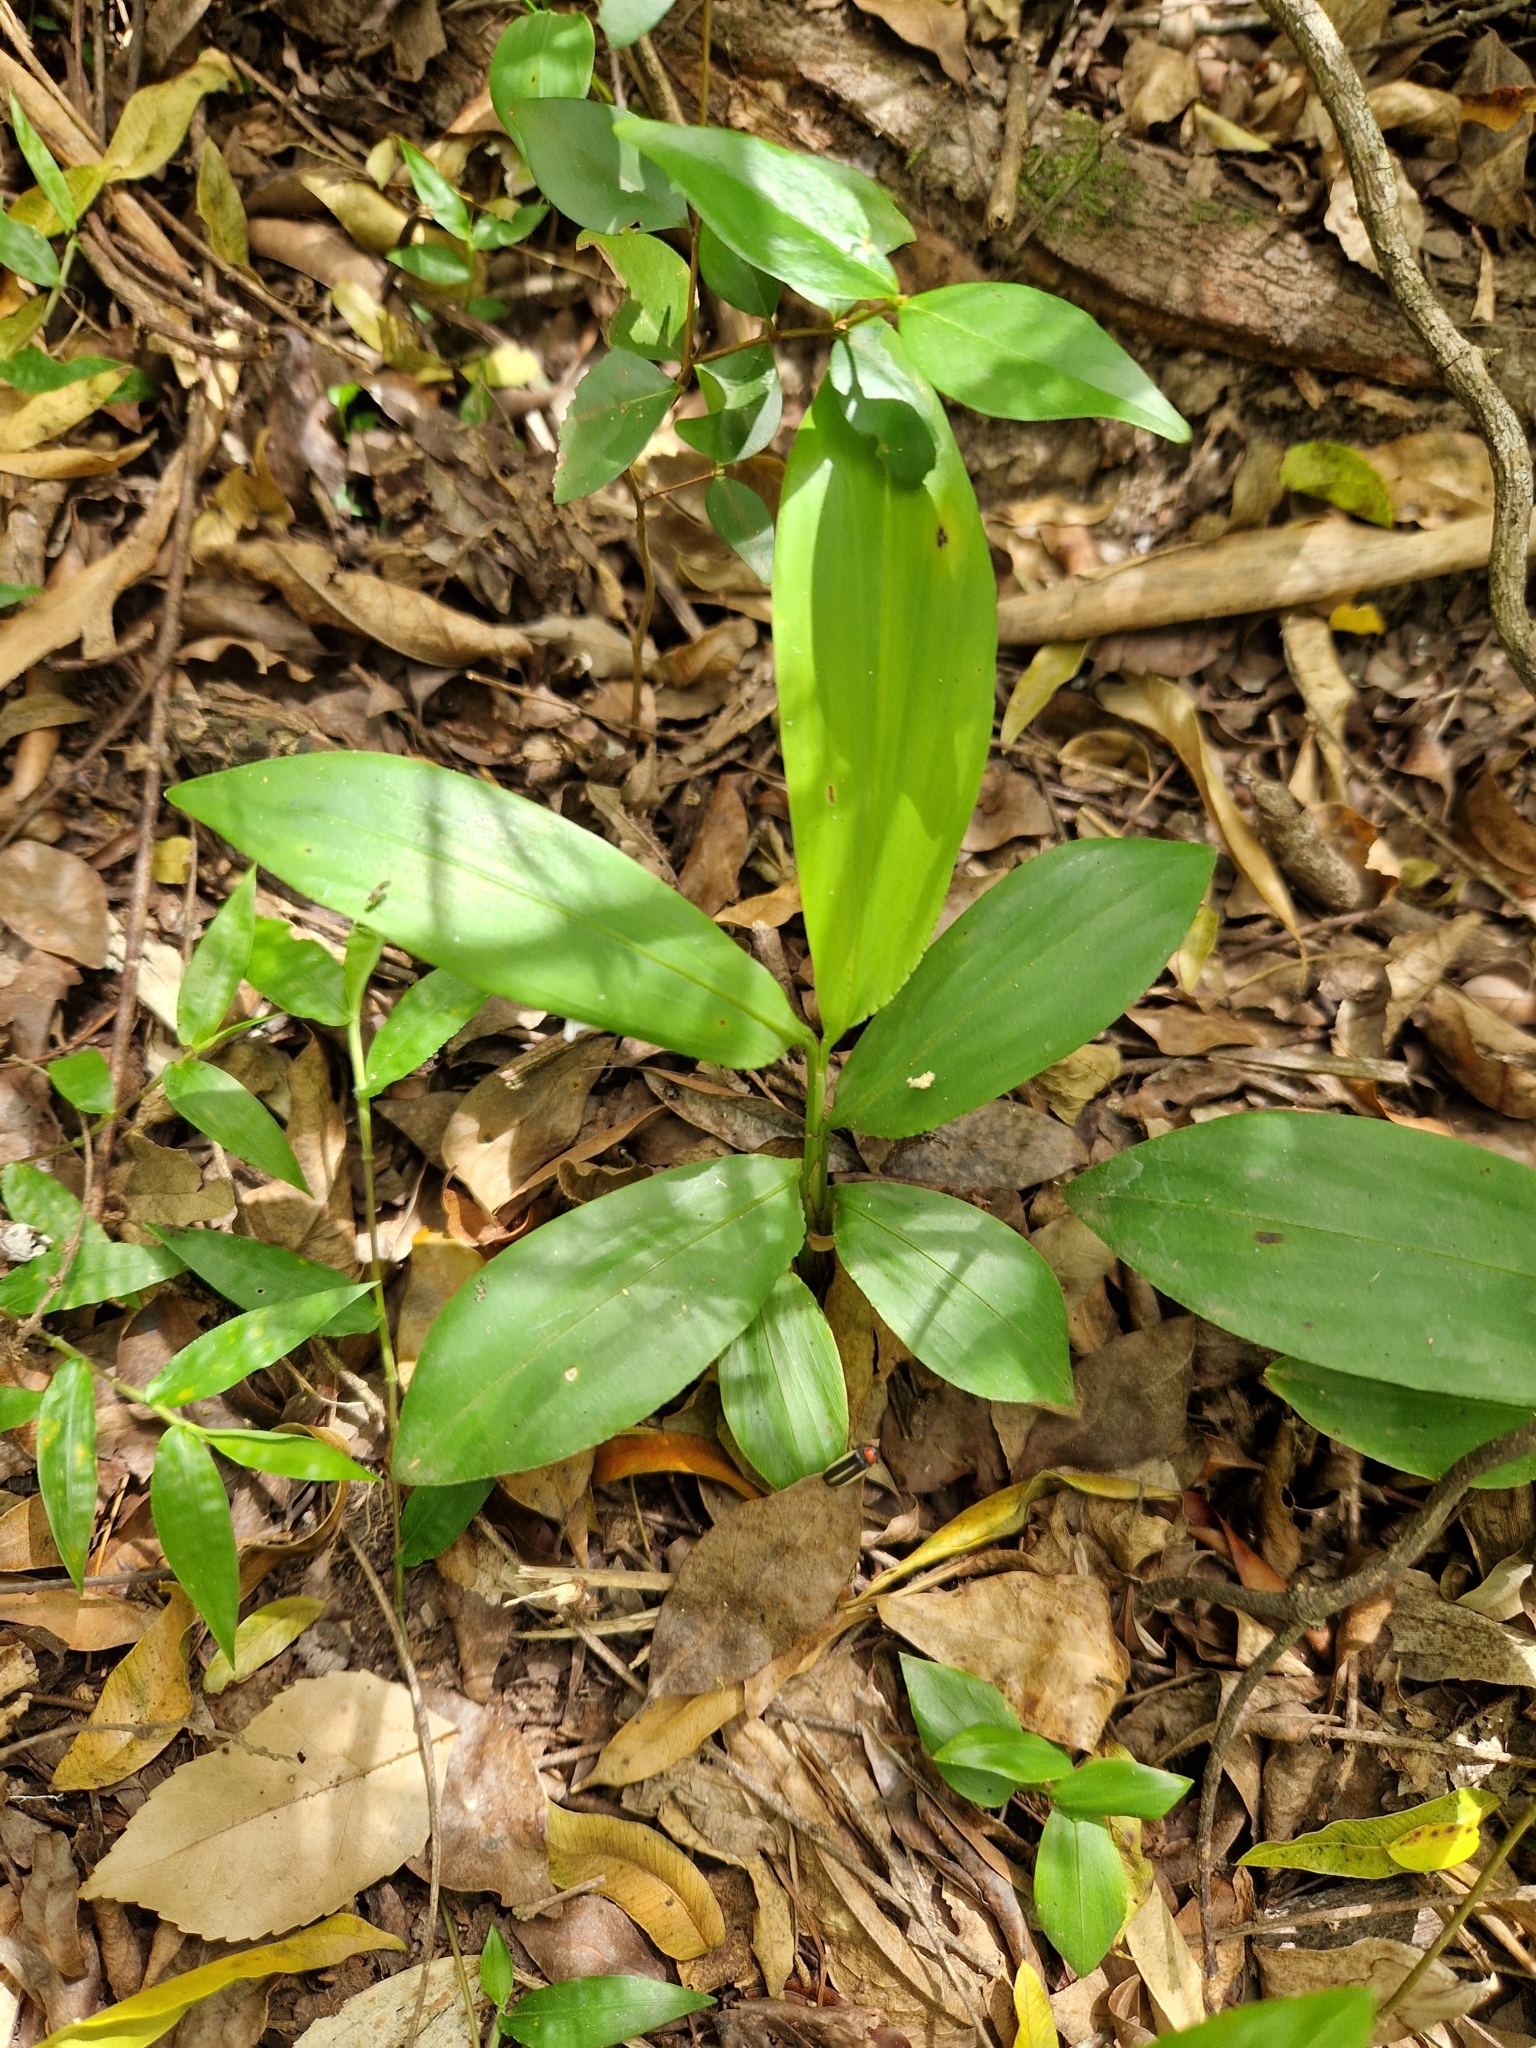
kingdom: Plantae
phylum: Tracheophyta
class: Liliopsida
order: Poales
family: Poaceae
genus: Pharus
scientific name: Pharus latifolius
